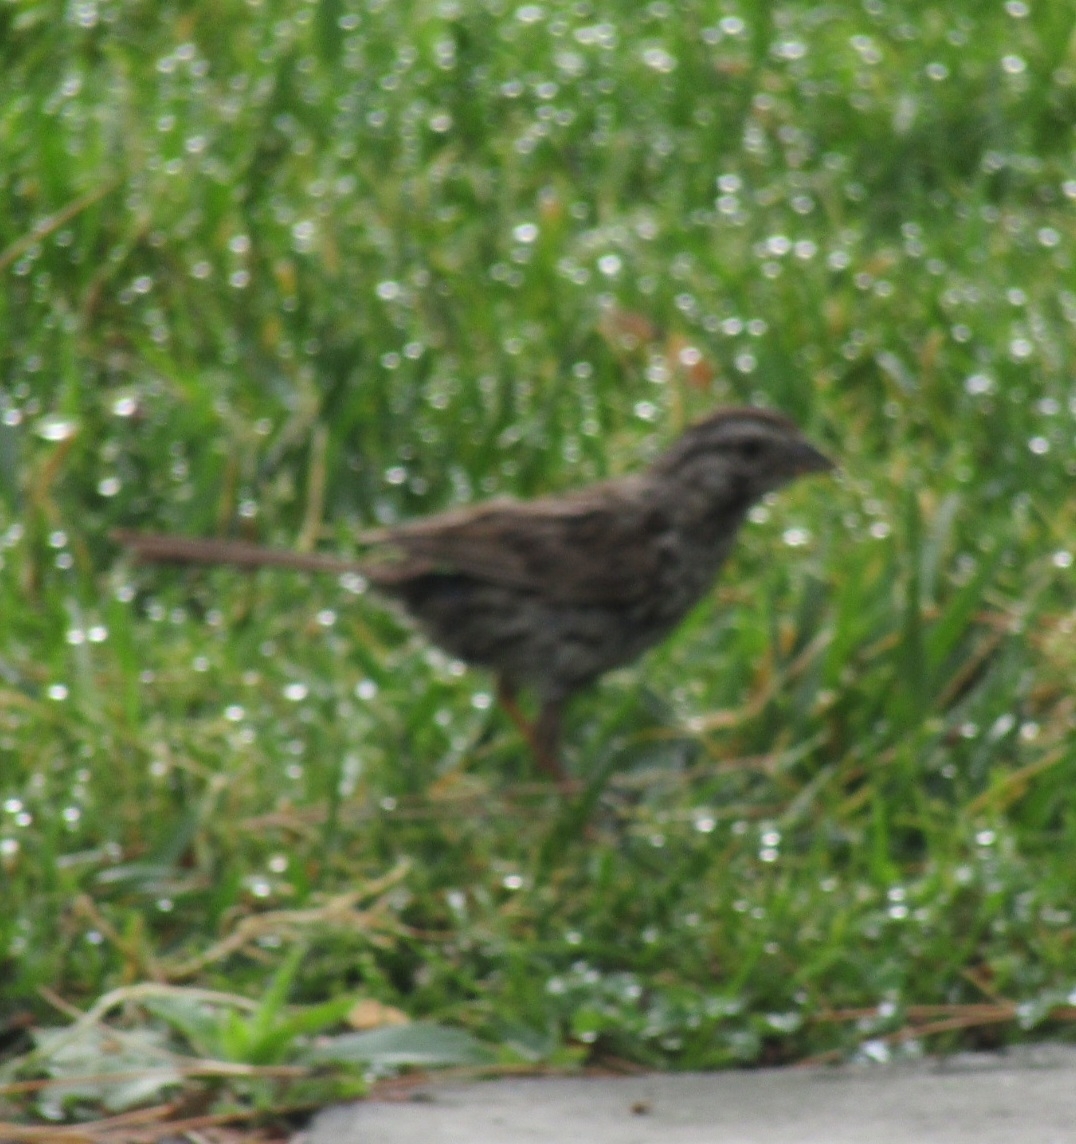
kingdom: Animalia
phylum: Chordata
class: Aves
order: Passeriformes
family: Passerellidae
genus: Melospiza
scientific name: Melospiza melodia
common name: Song sparrow
